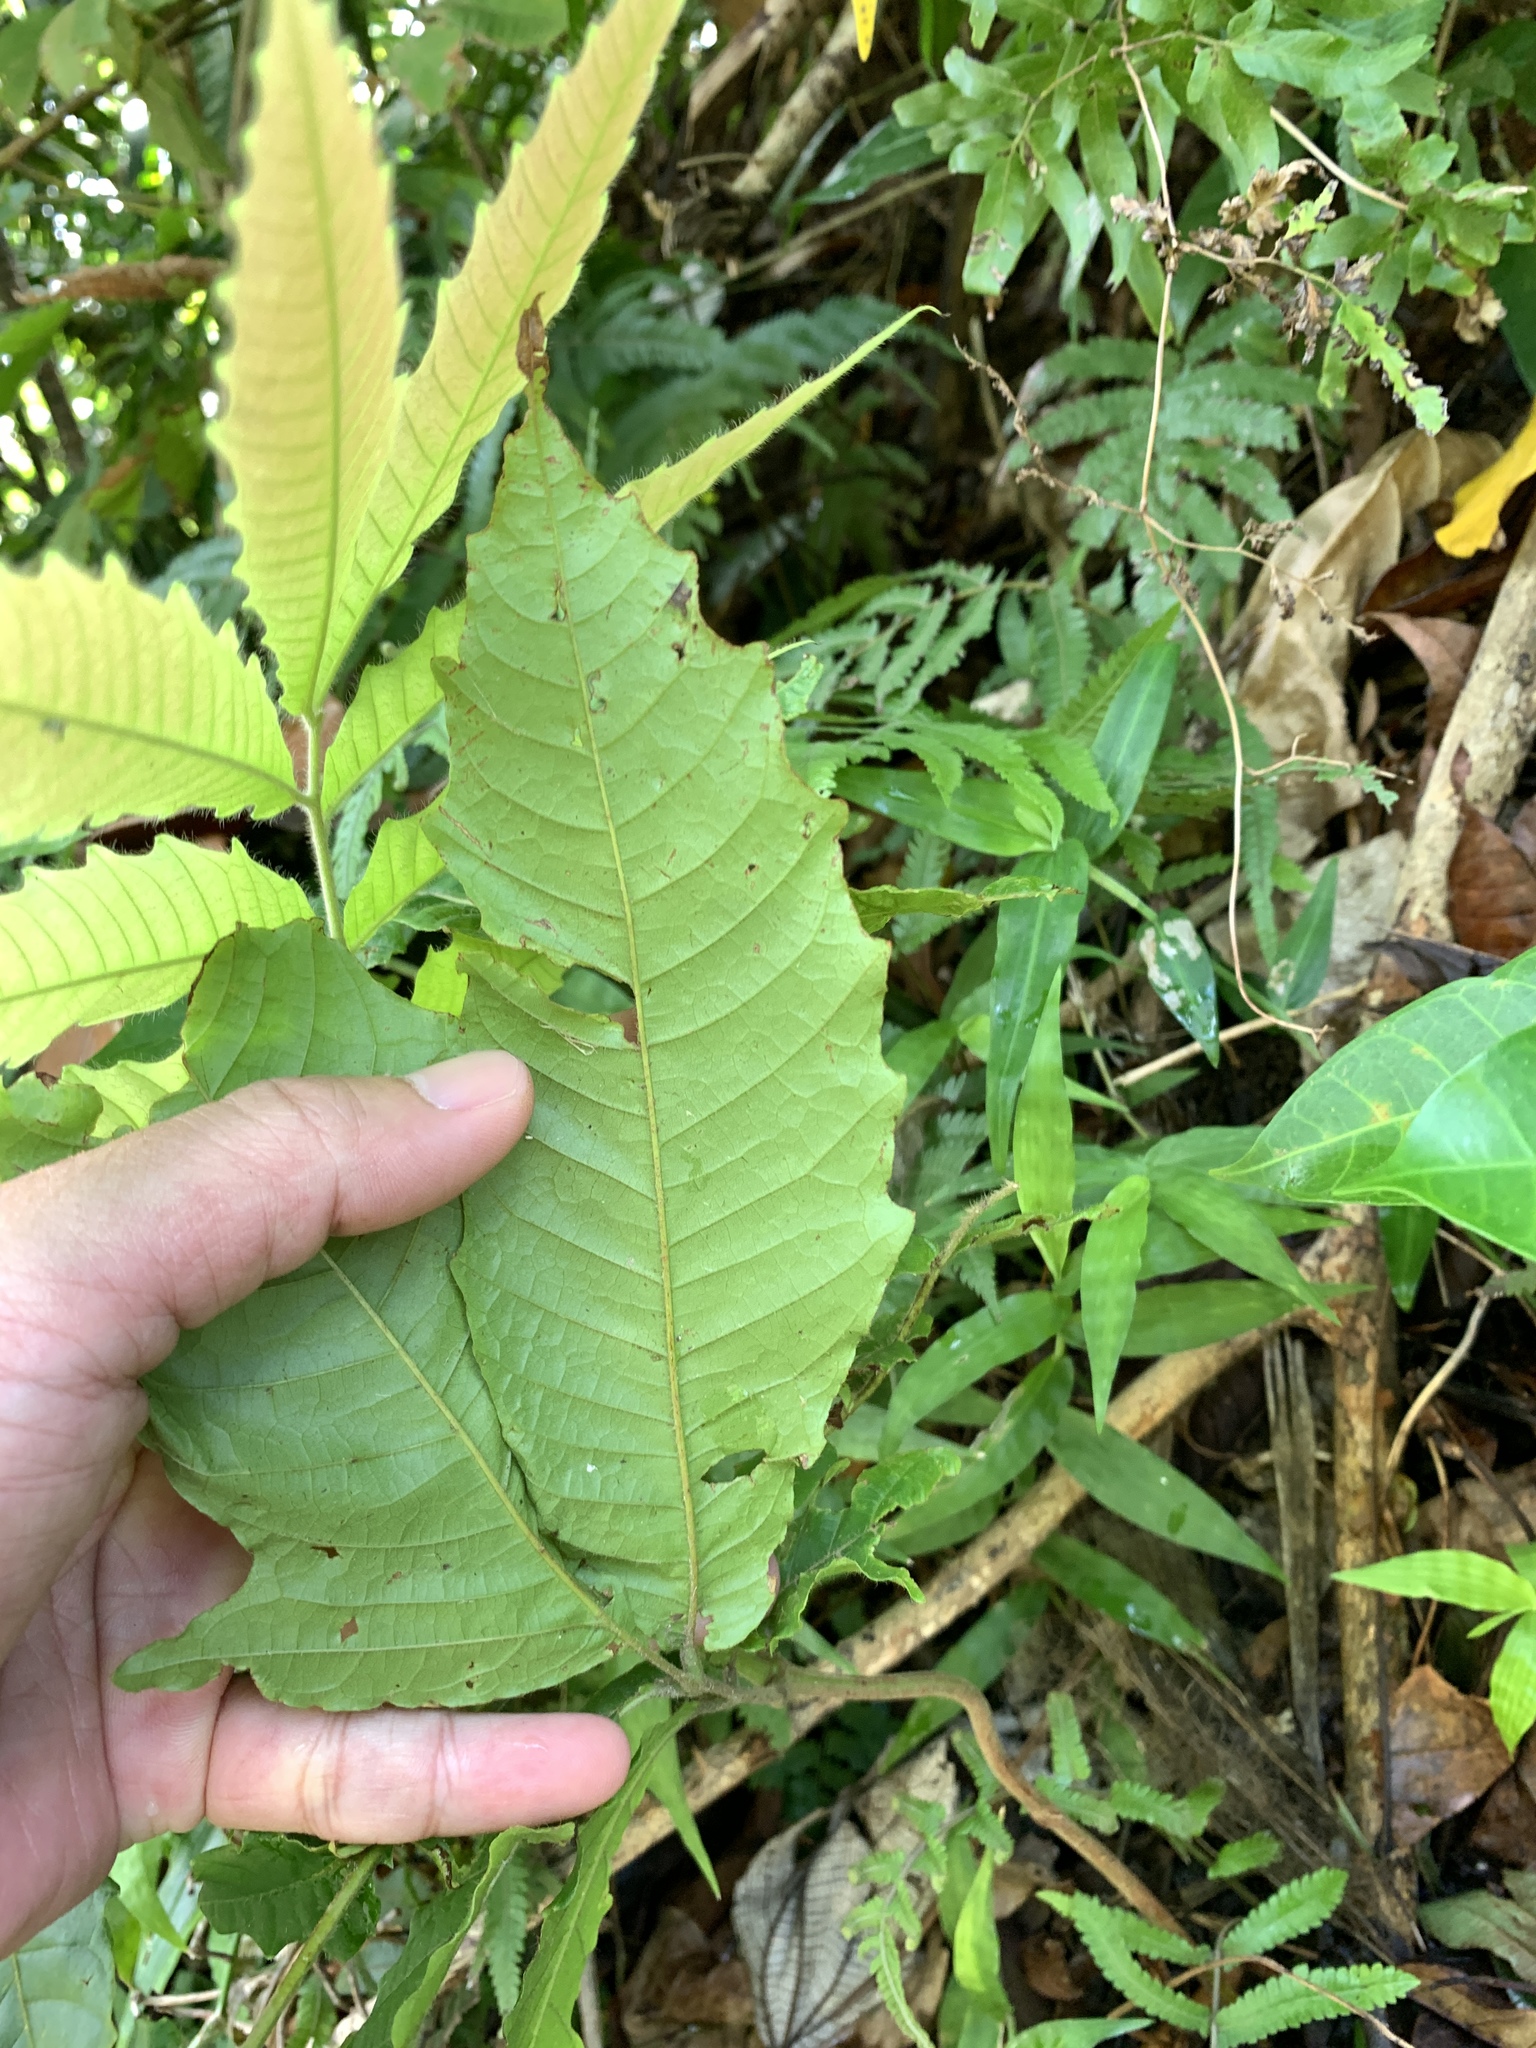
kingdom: Plantae
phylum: Tracheophyta
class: Magnoliopsida
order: Sapindales
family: Sapindaceae
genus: Pometia
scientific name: Pometia pinnata
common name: Oceanic lychee
